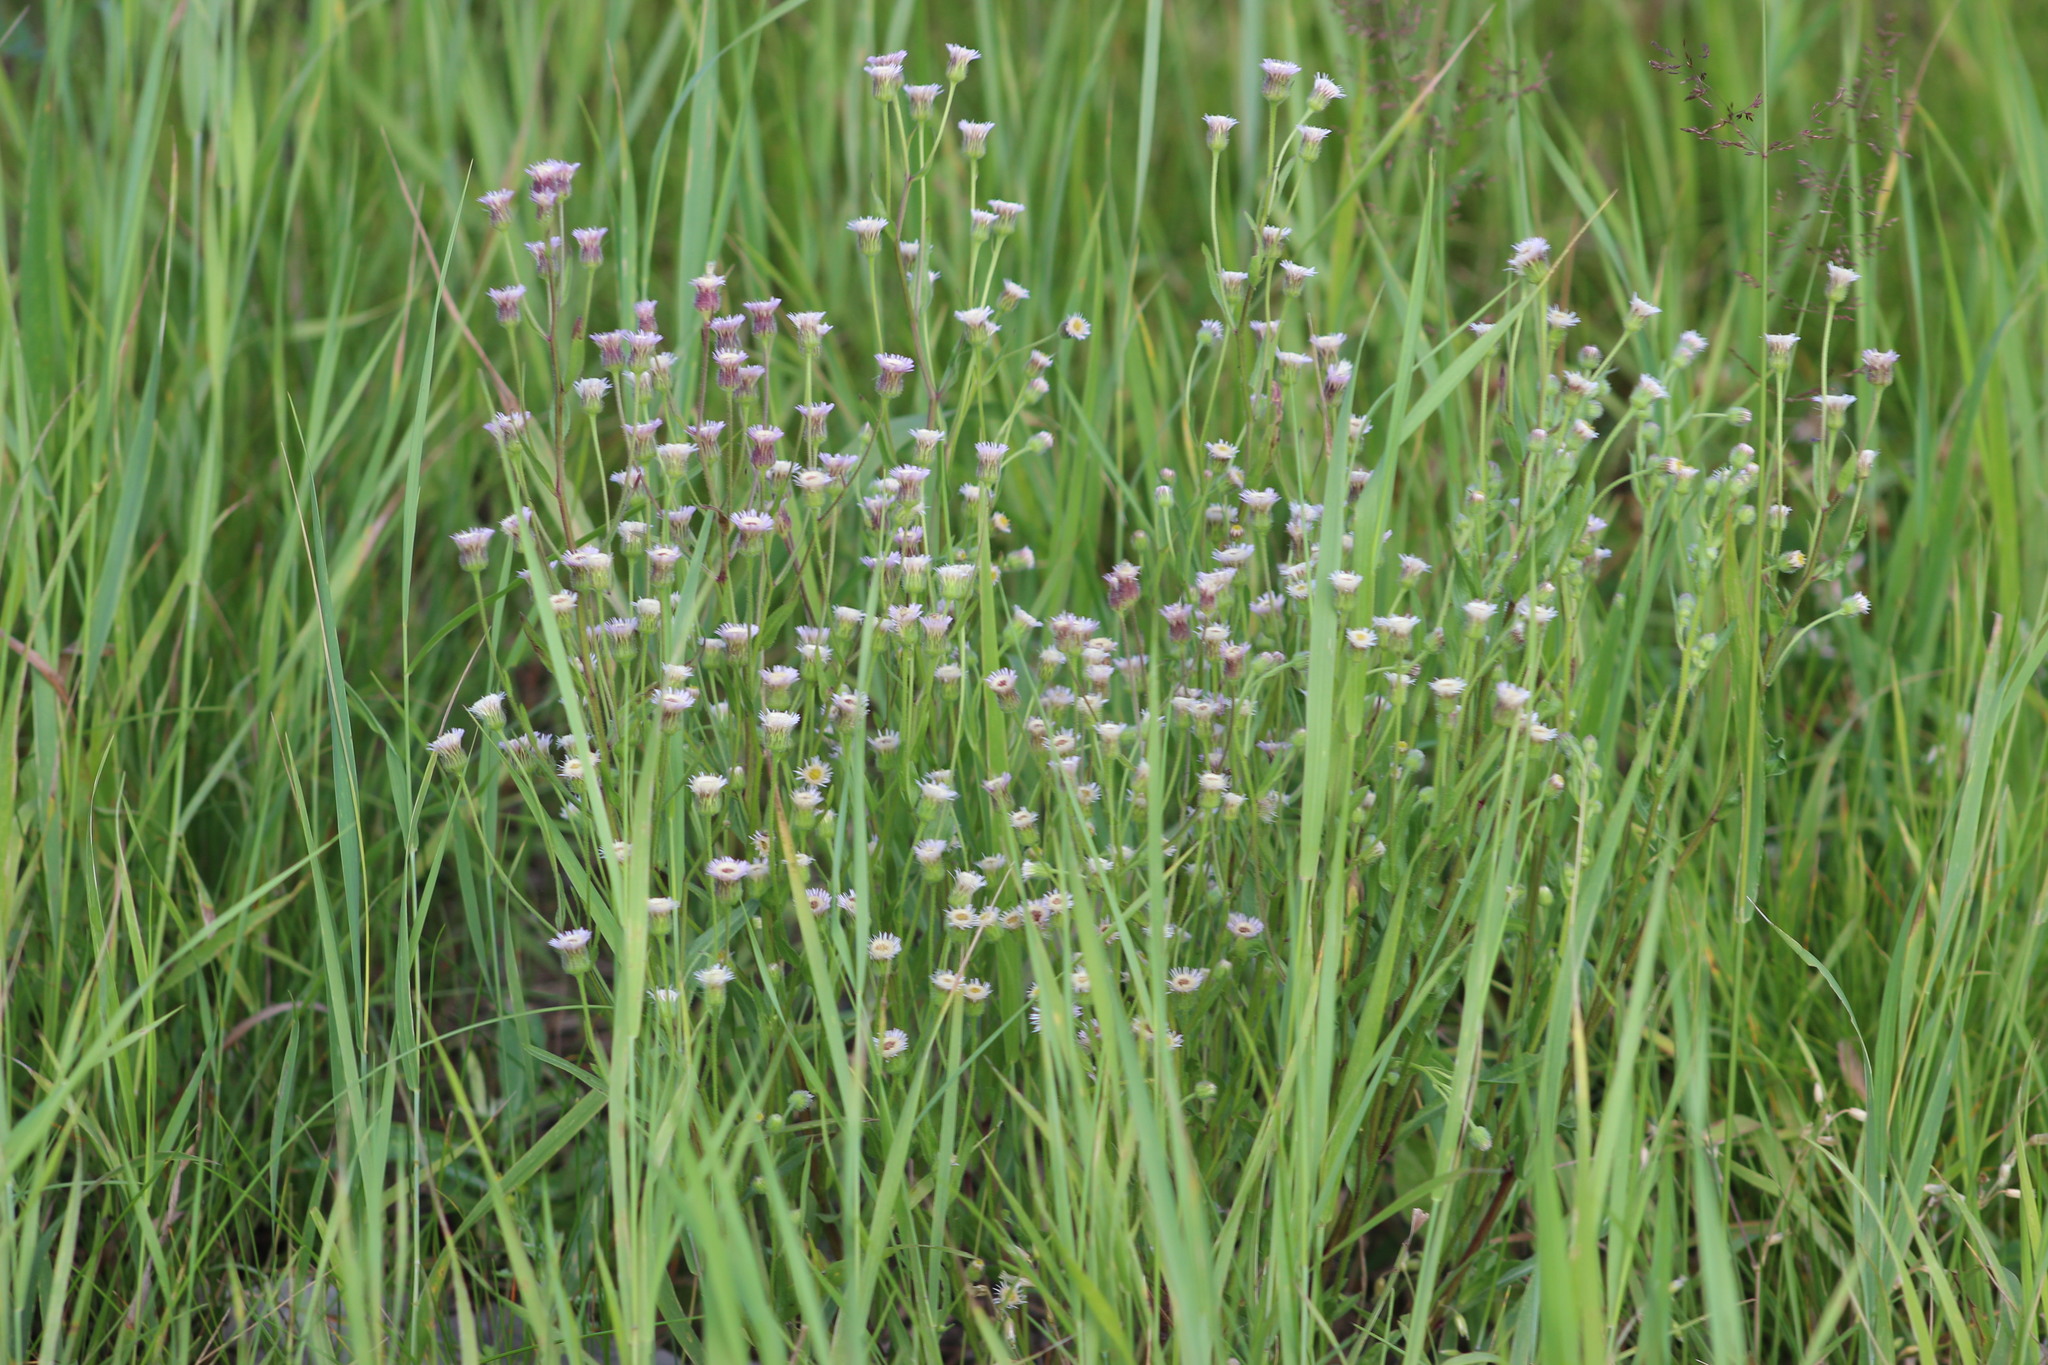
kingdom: Plantae
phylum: Tracheophyta
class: Magnoliopsida
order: Asterales
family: Asteraceae
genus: Erigeron
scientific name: Erigeron acris
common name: Blue fleabane
